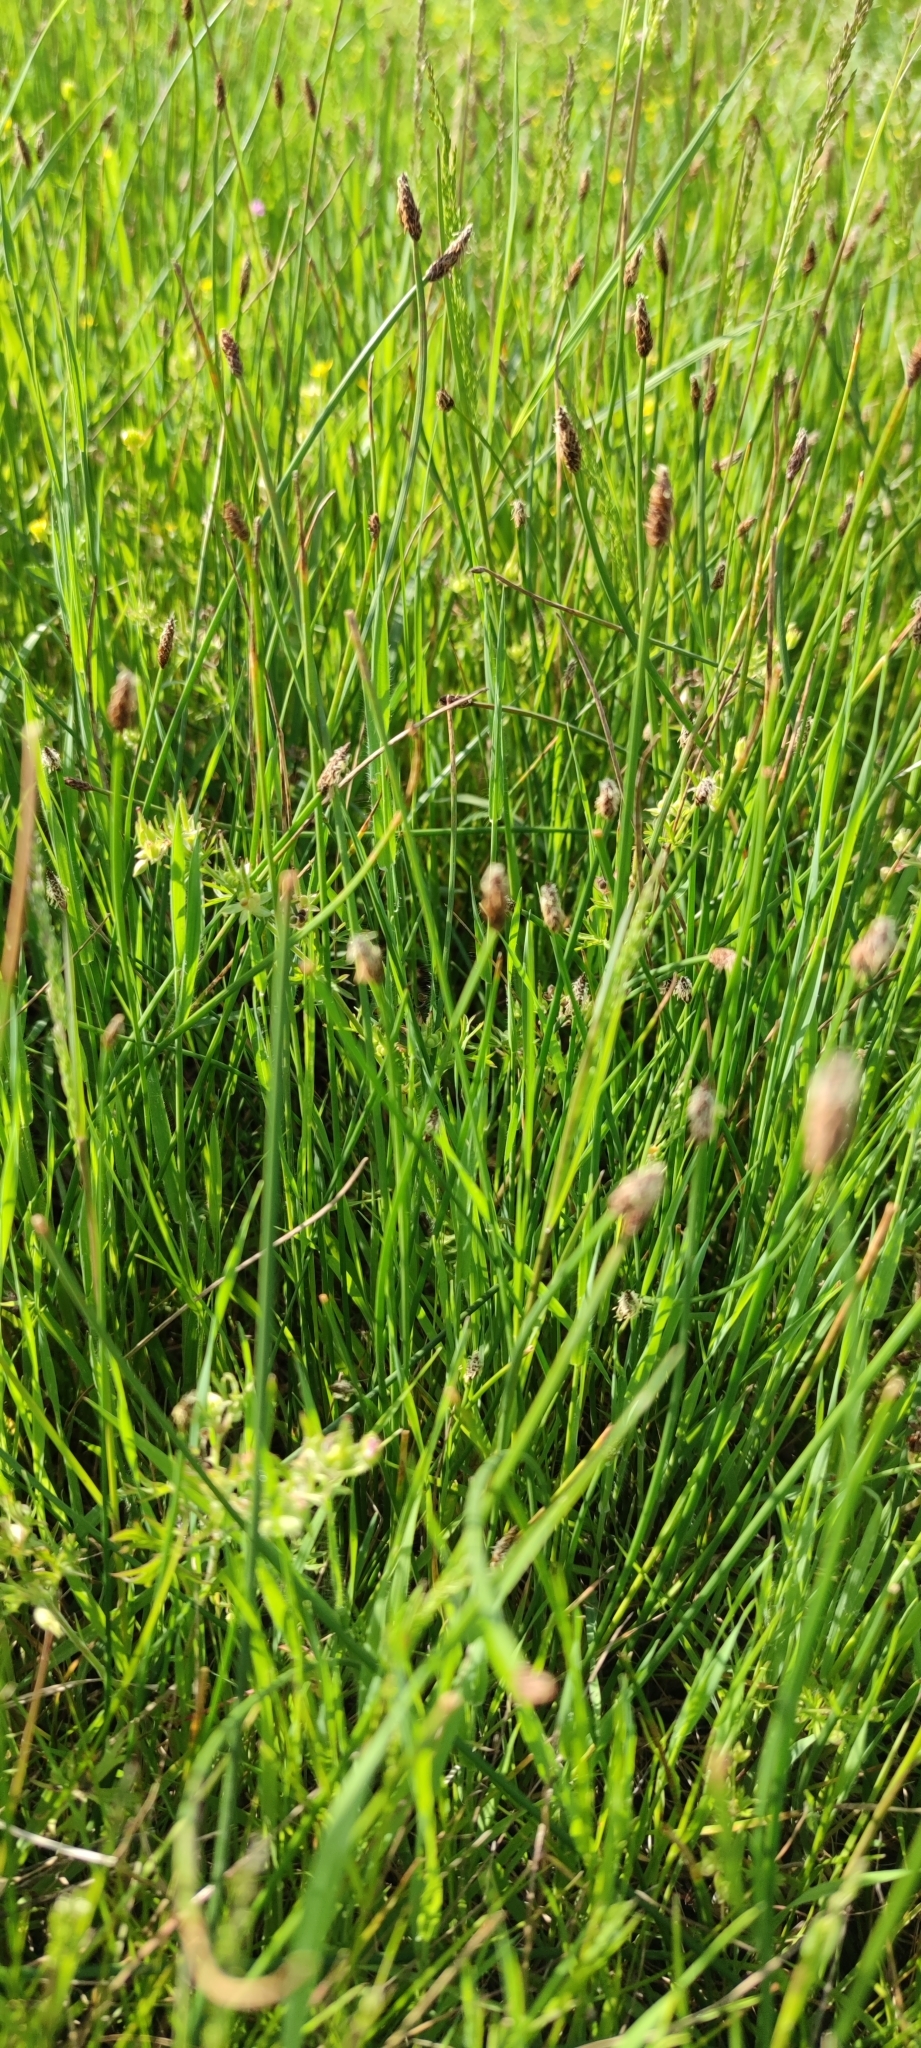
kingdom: Plantae
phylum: Tracheophyta
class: Liliopsida
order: Poales
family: Cyperaceae
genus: Eleocharis
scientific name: Eleocharis palustris
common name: Common spike-rush
